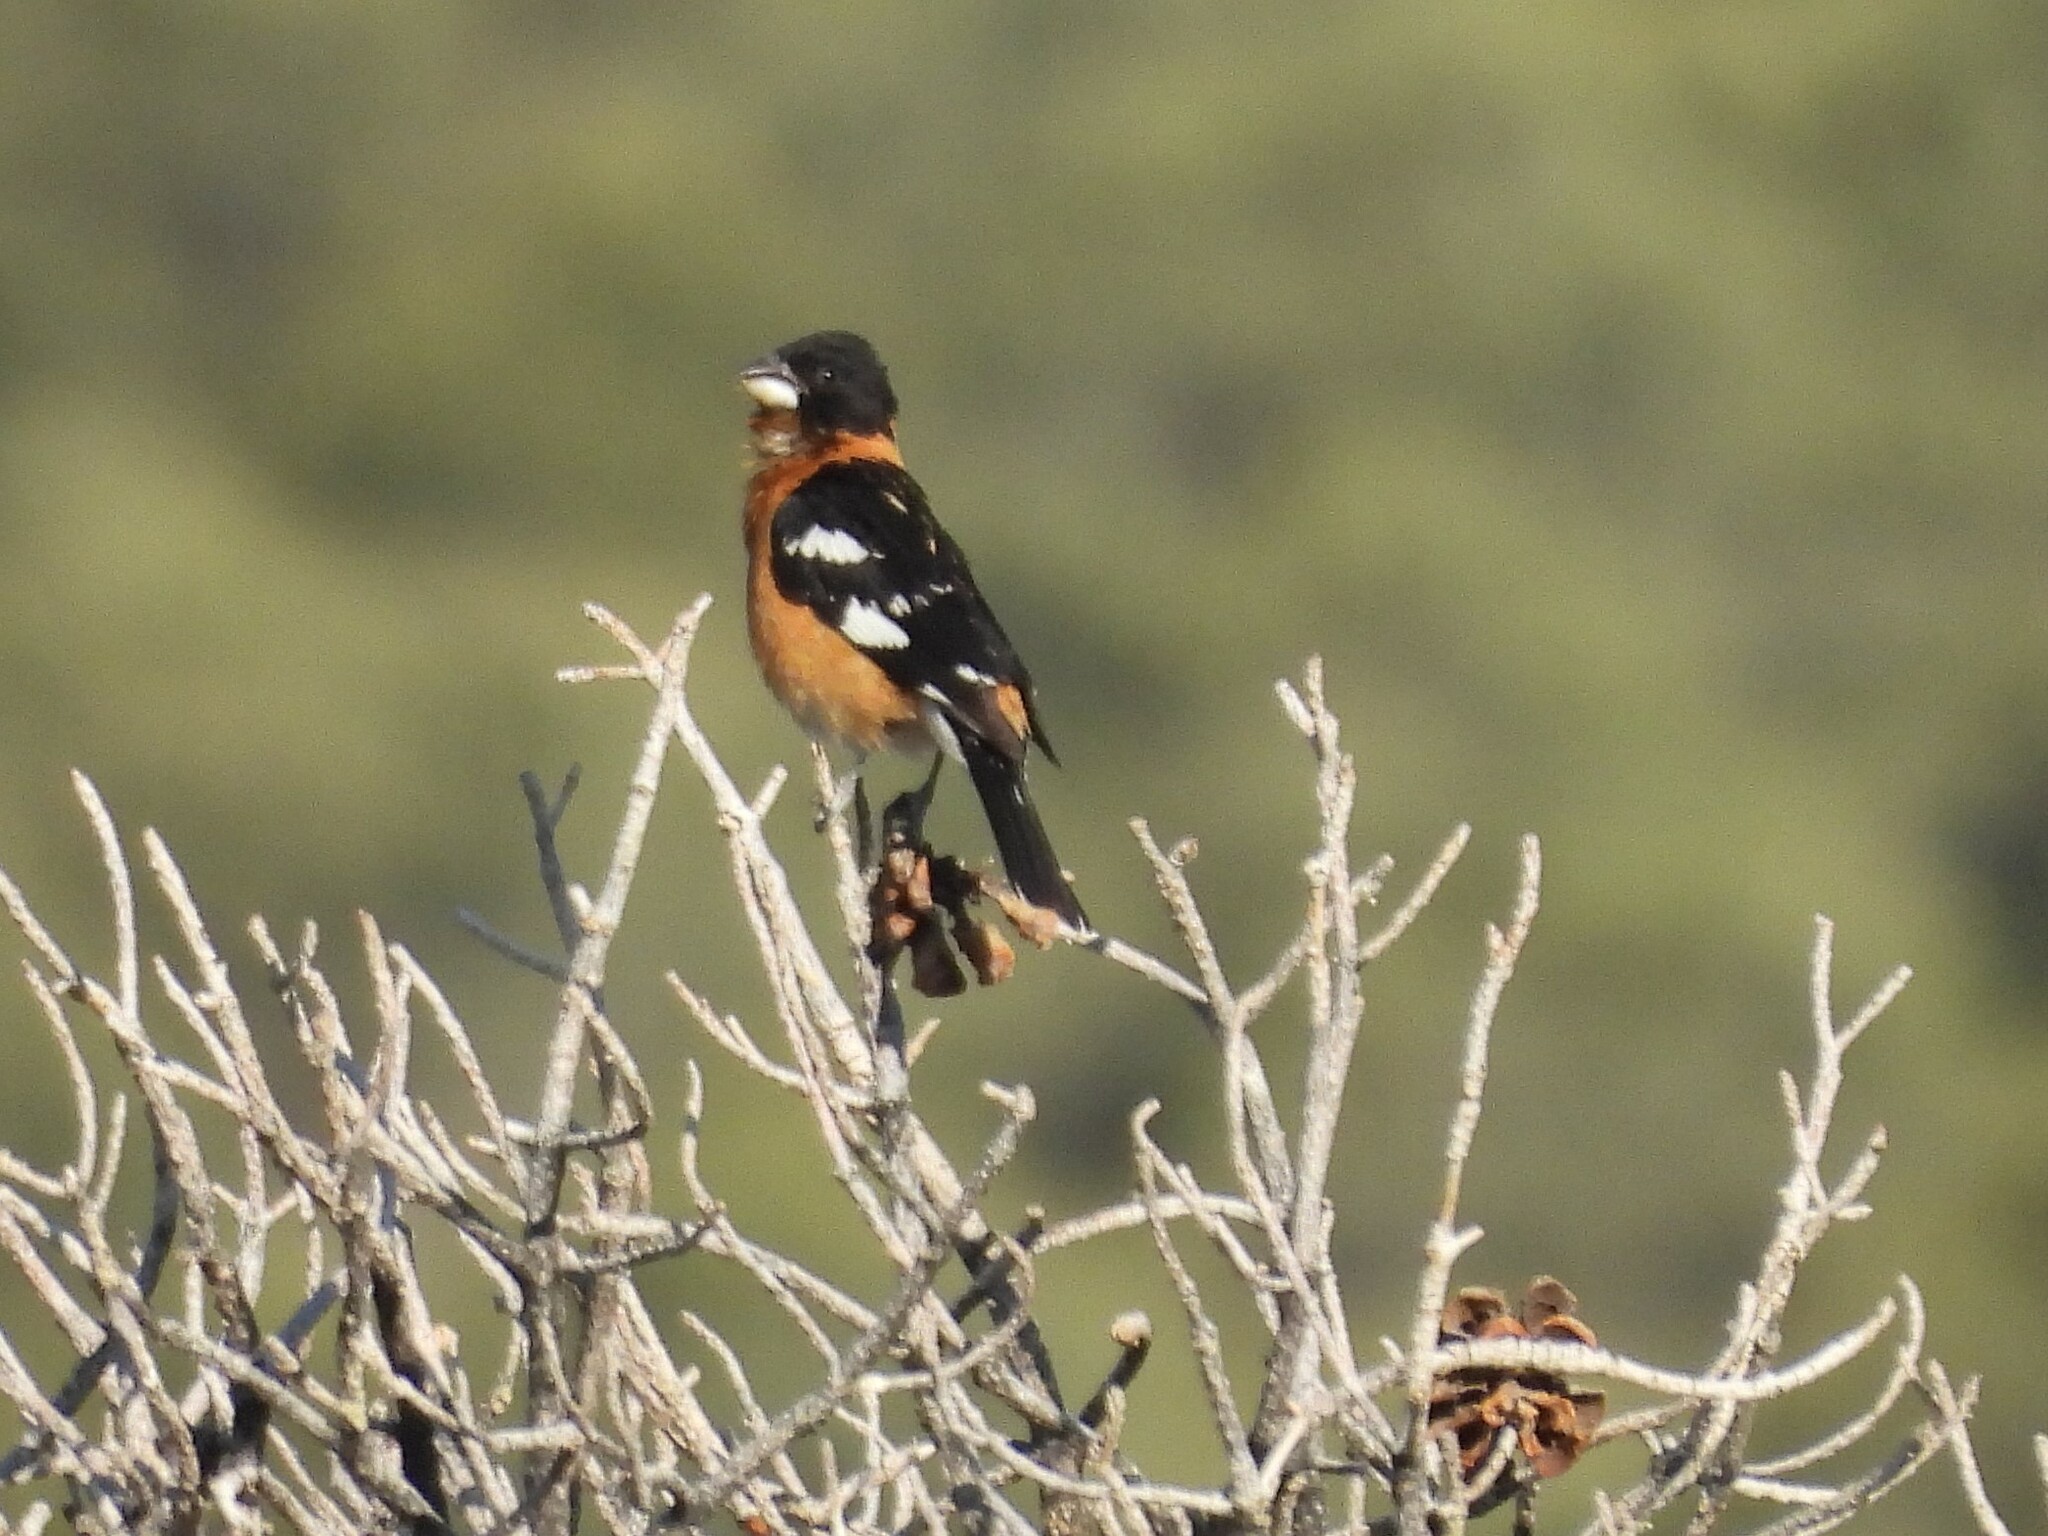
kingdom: Animalia
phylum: Chordata
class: Aves
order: Passeriformes
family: Cardinalidae
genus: Pheucticus
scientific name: Pheucticus melanocephalus
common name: Black-headed grosbeak
